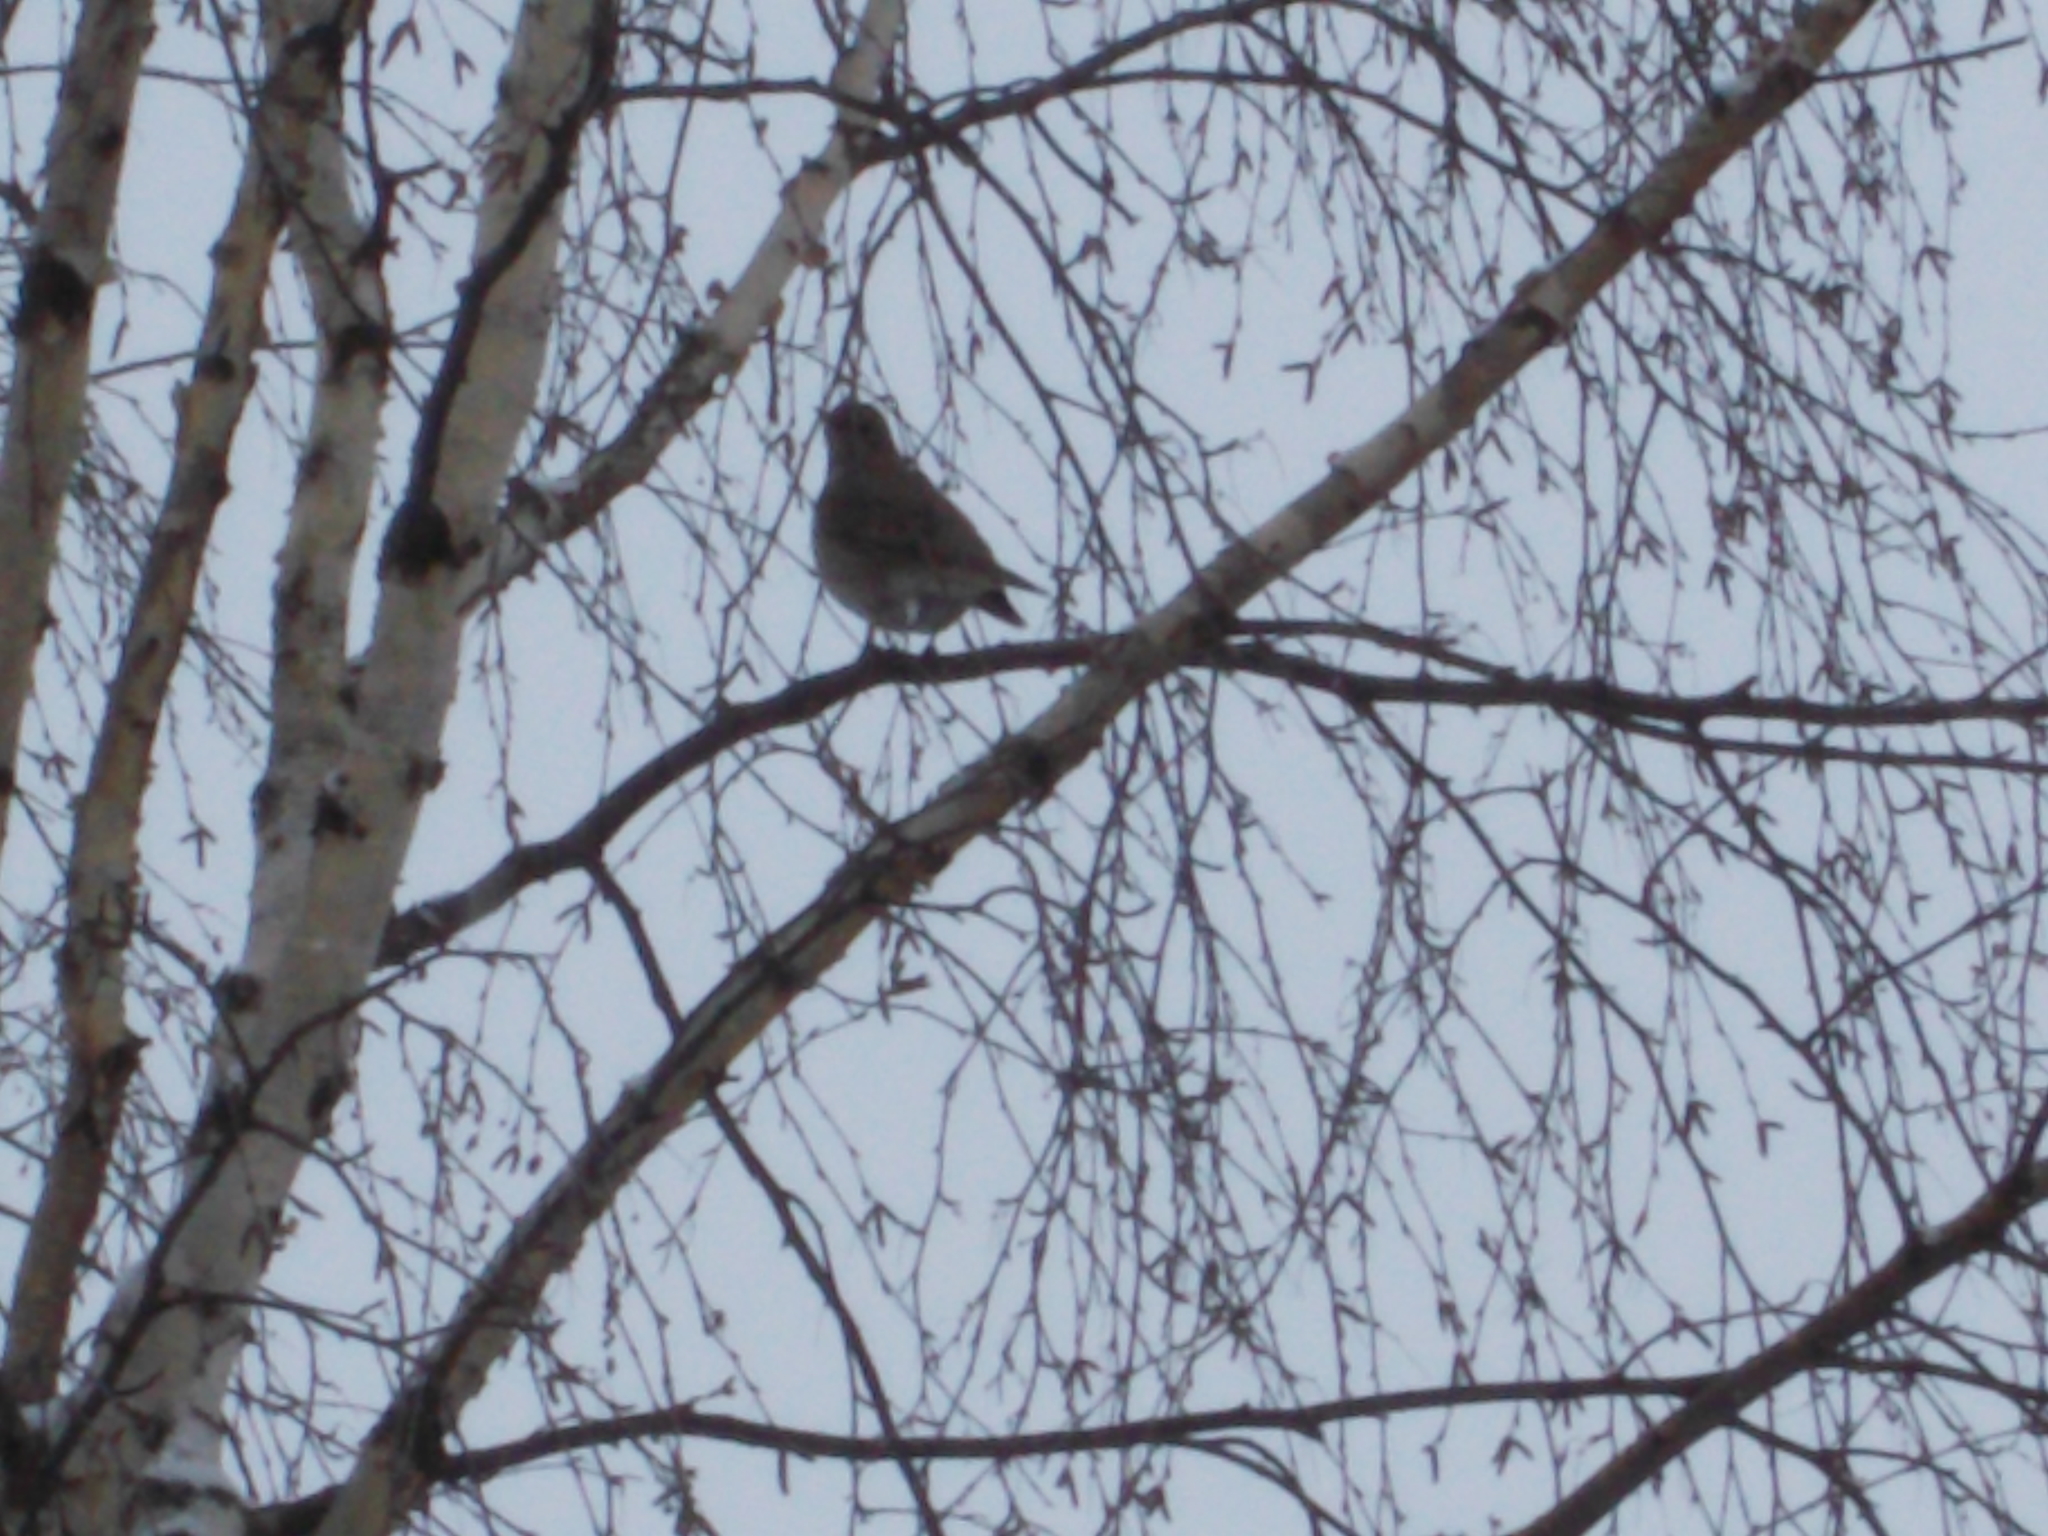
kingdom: Animalia
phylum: Chordata
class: Aves
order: Passeriformes
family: Turdidae
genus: Turdus
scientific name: Turdus atrogularis
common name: Black-throated thrush
